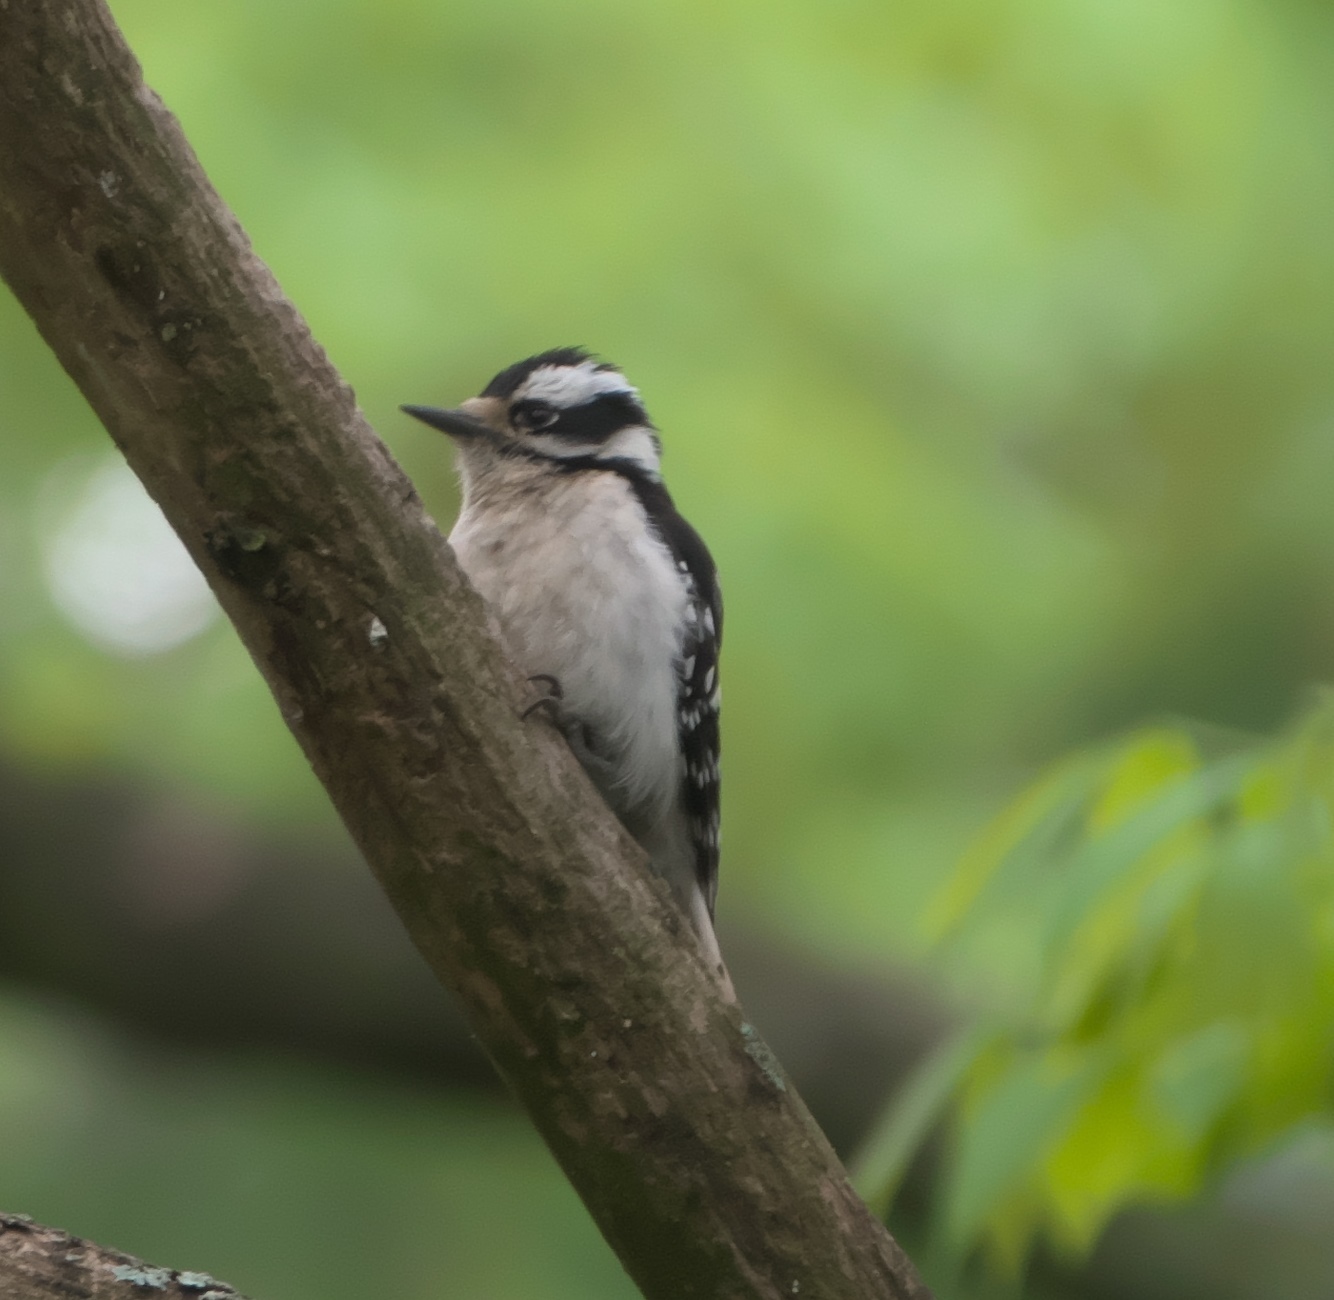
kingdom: Animalia
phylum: Chordata
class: Aves
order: Piciformes
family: Picidae
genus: Dryobates
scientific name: Dryobates pubescens
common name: Downy woodpecker
